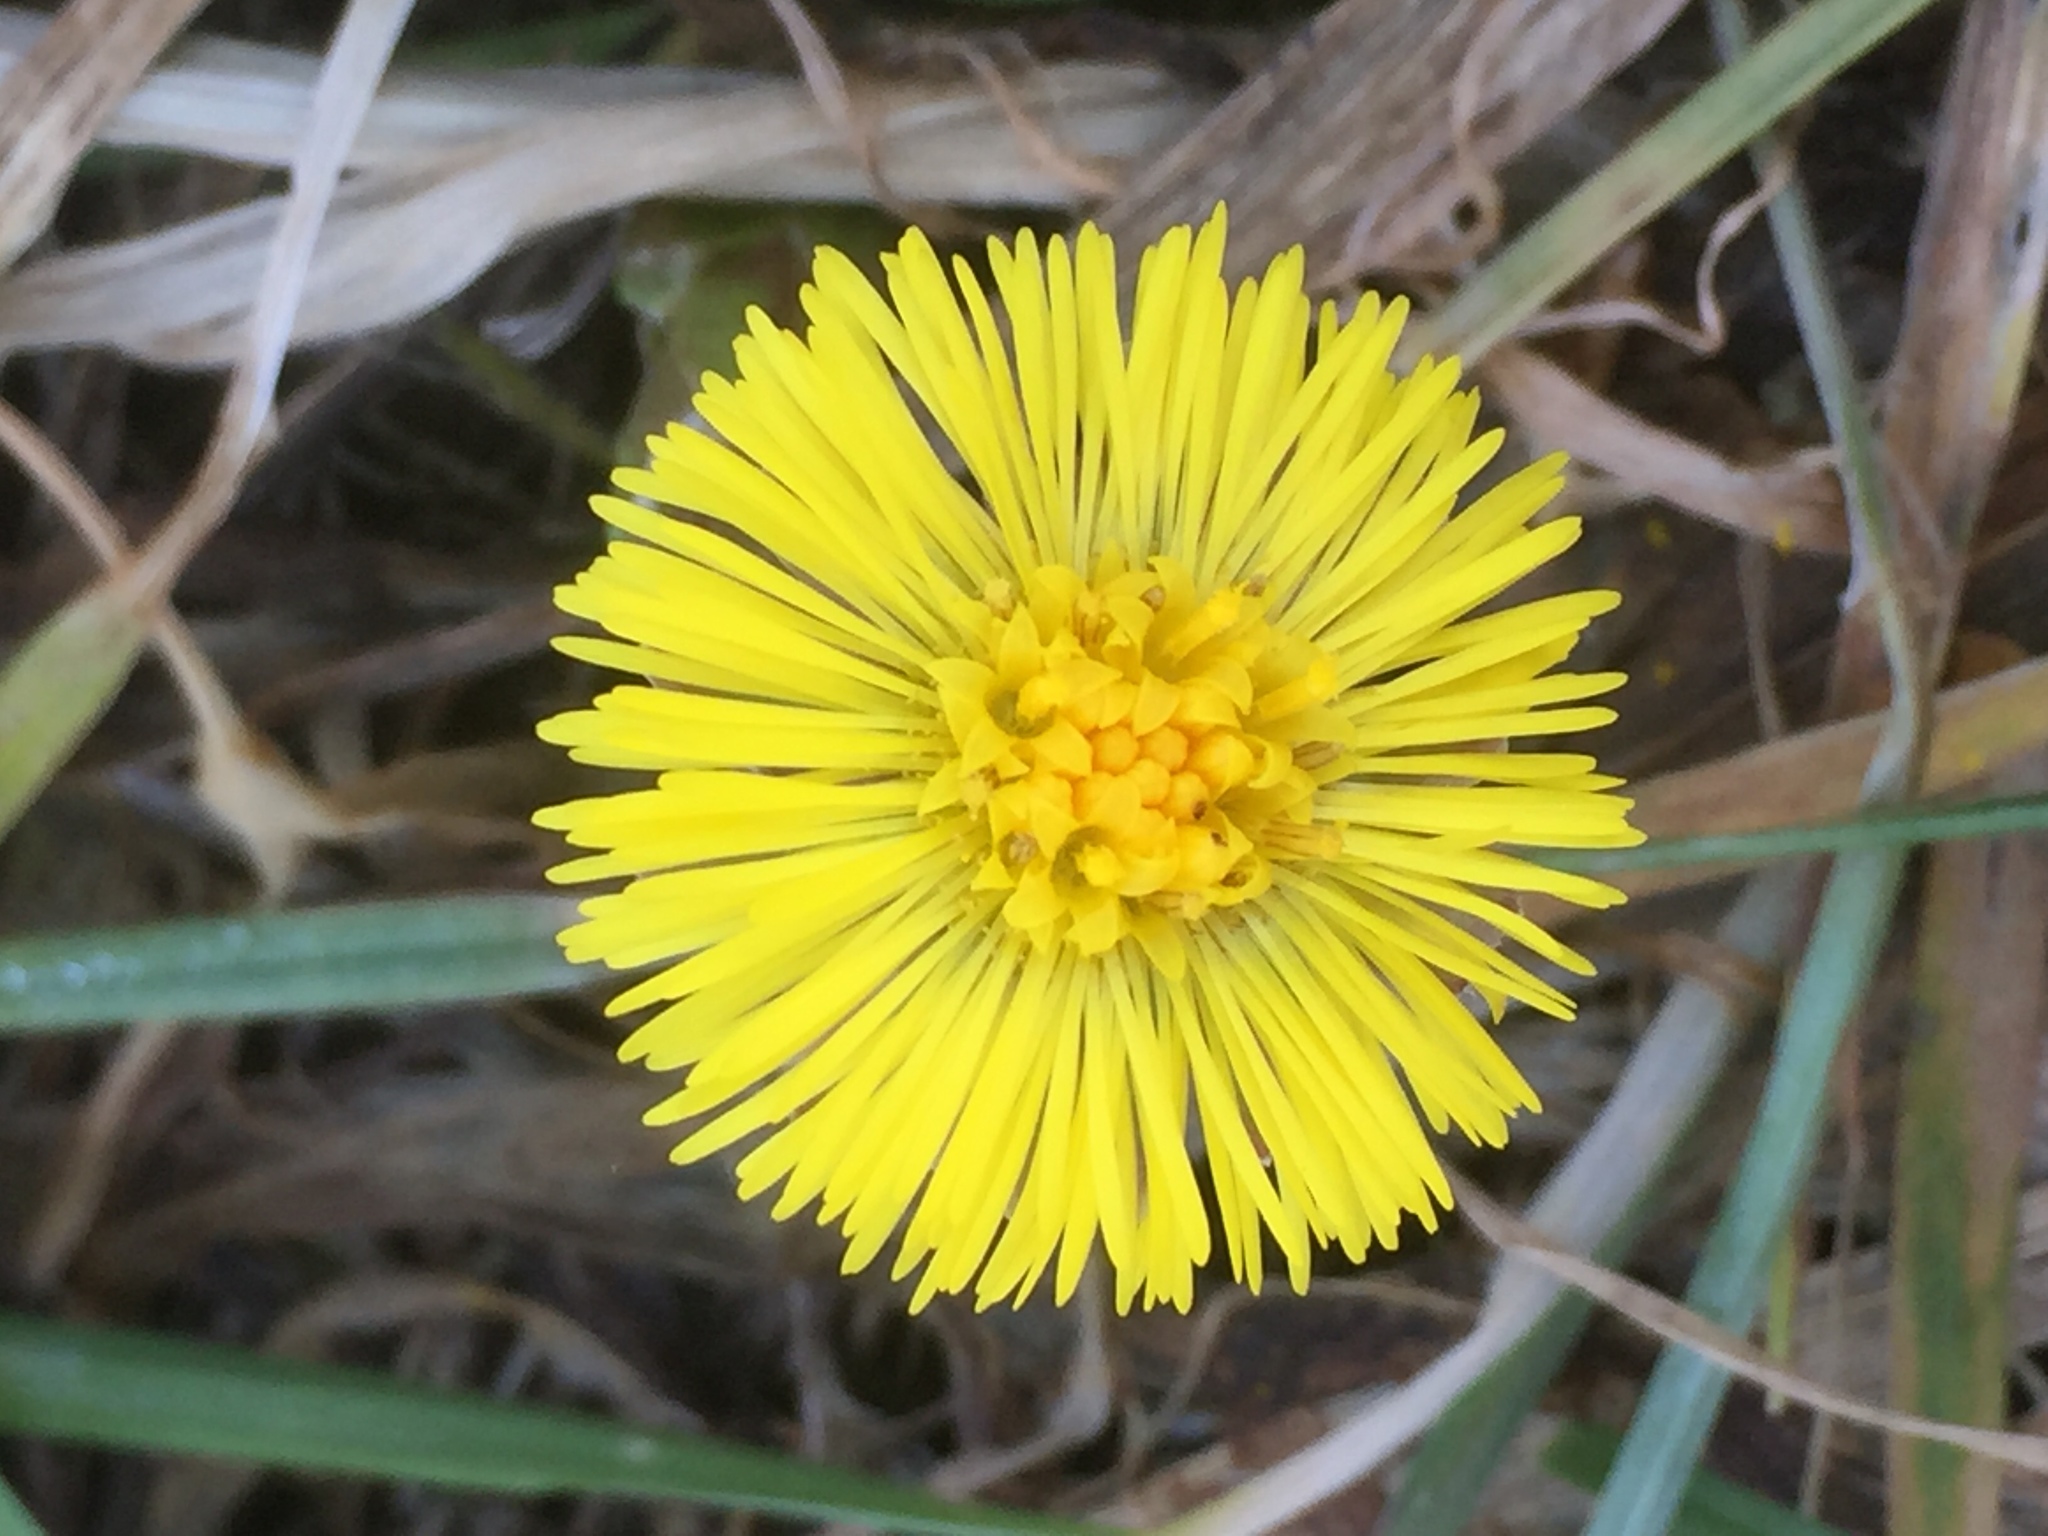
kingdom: Plantae
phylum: Tracheophyta
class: Magnoliopsida
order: Asterales
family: Asteraceae
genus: Tussilago
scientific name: Tussilago farfara
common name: Coltsfoot
